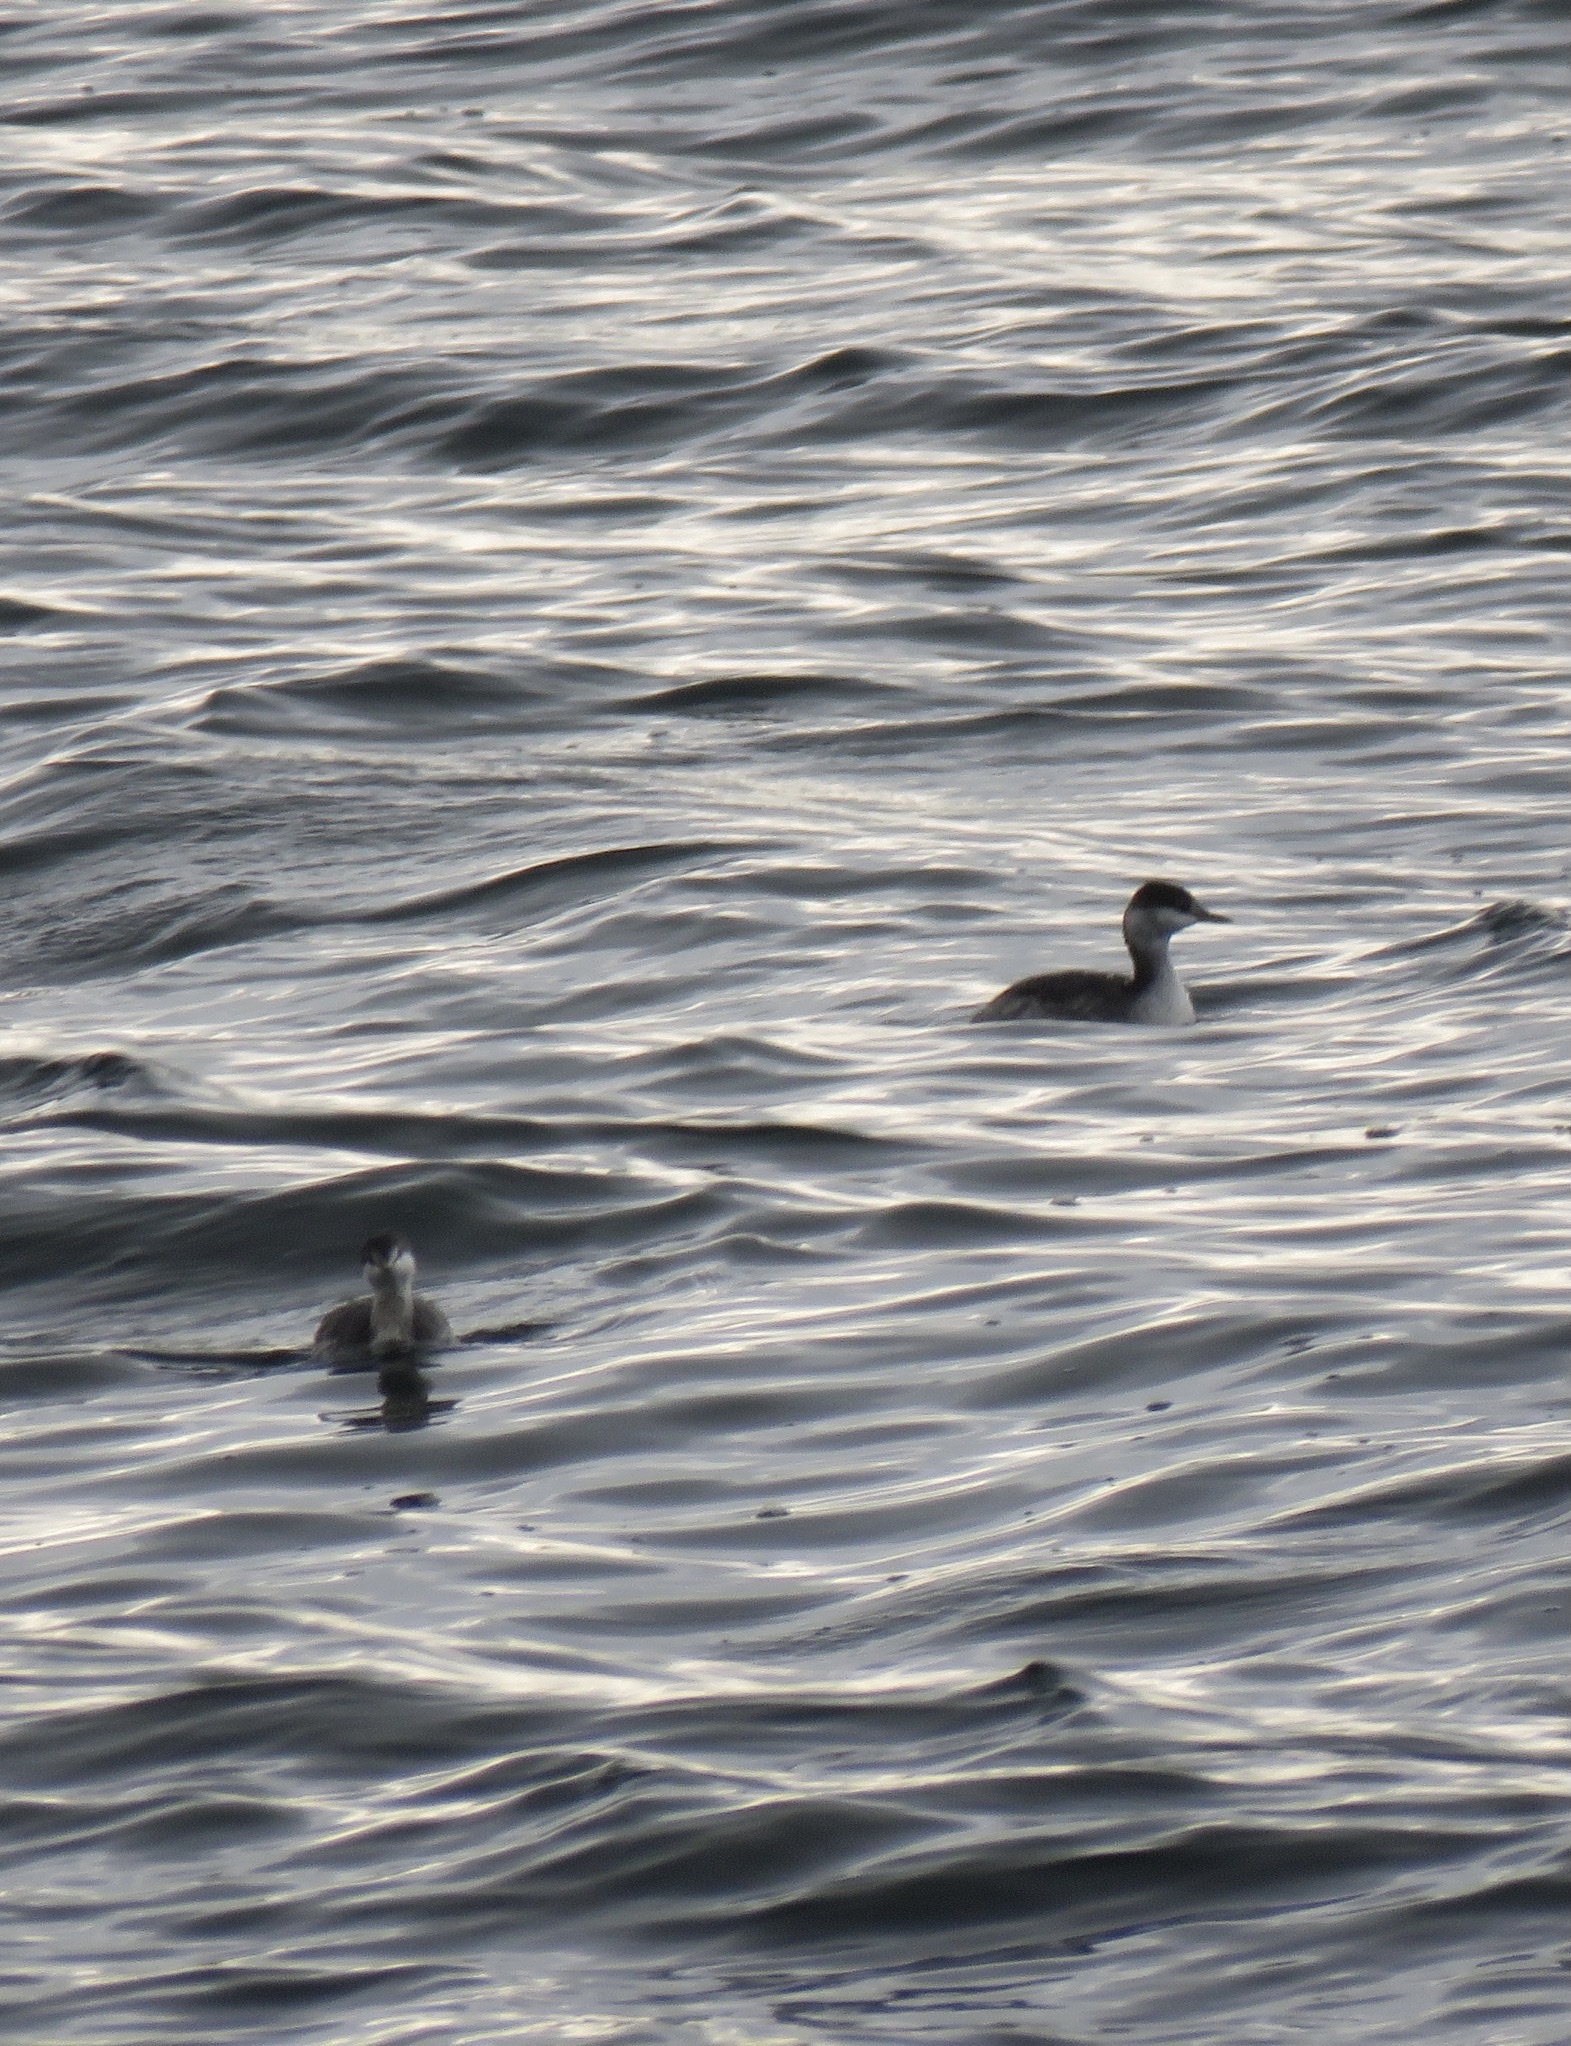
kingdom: Animalia
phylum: Chordata
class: Aves
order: Podicipediformes
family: Podicipedidae
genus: Podiceps
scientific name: Podiceps auritus
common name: Horned grebe
